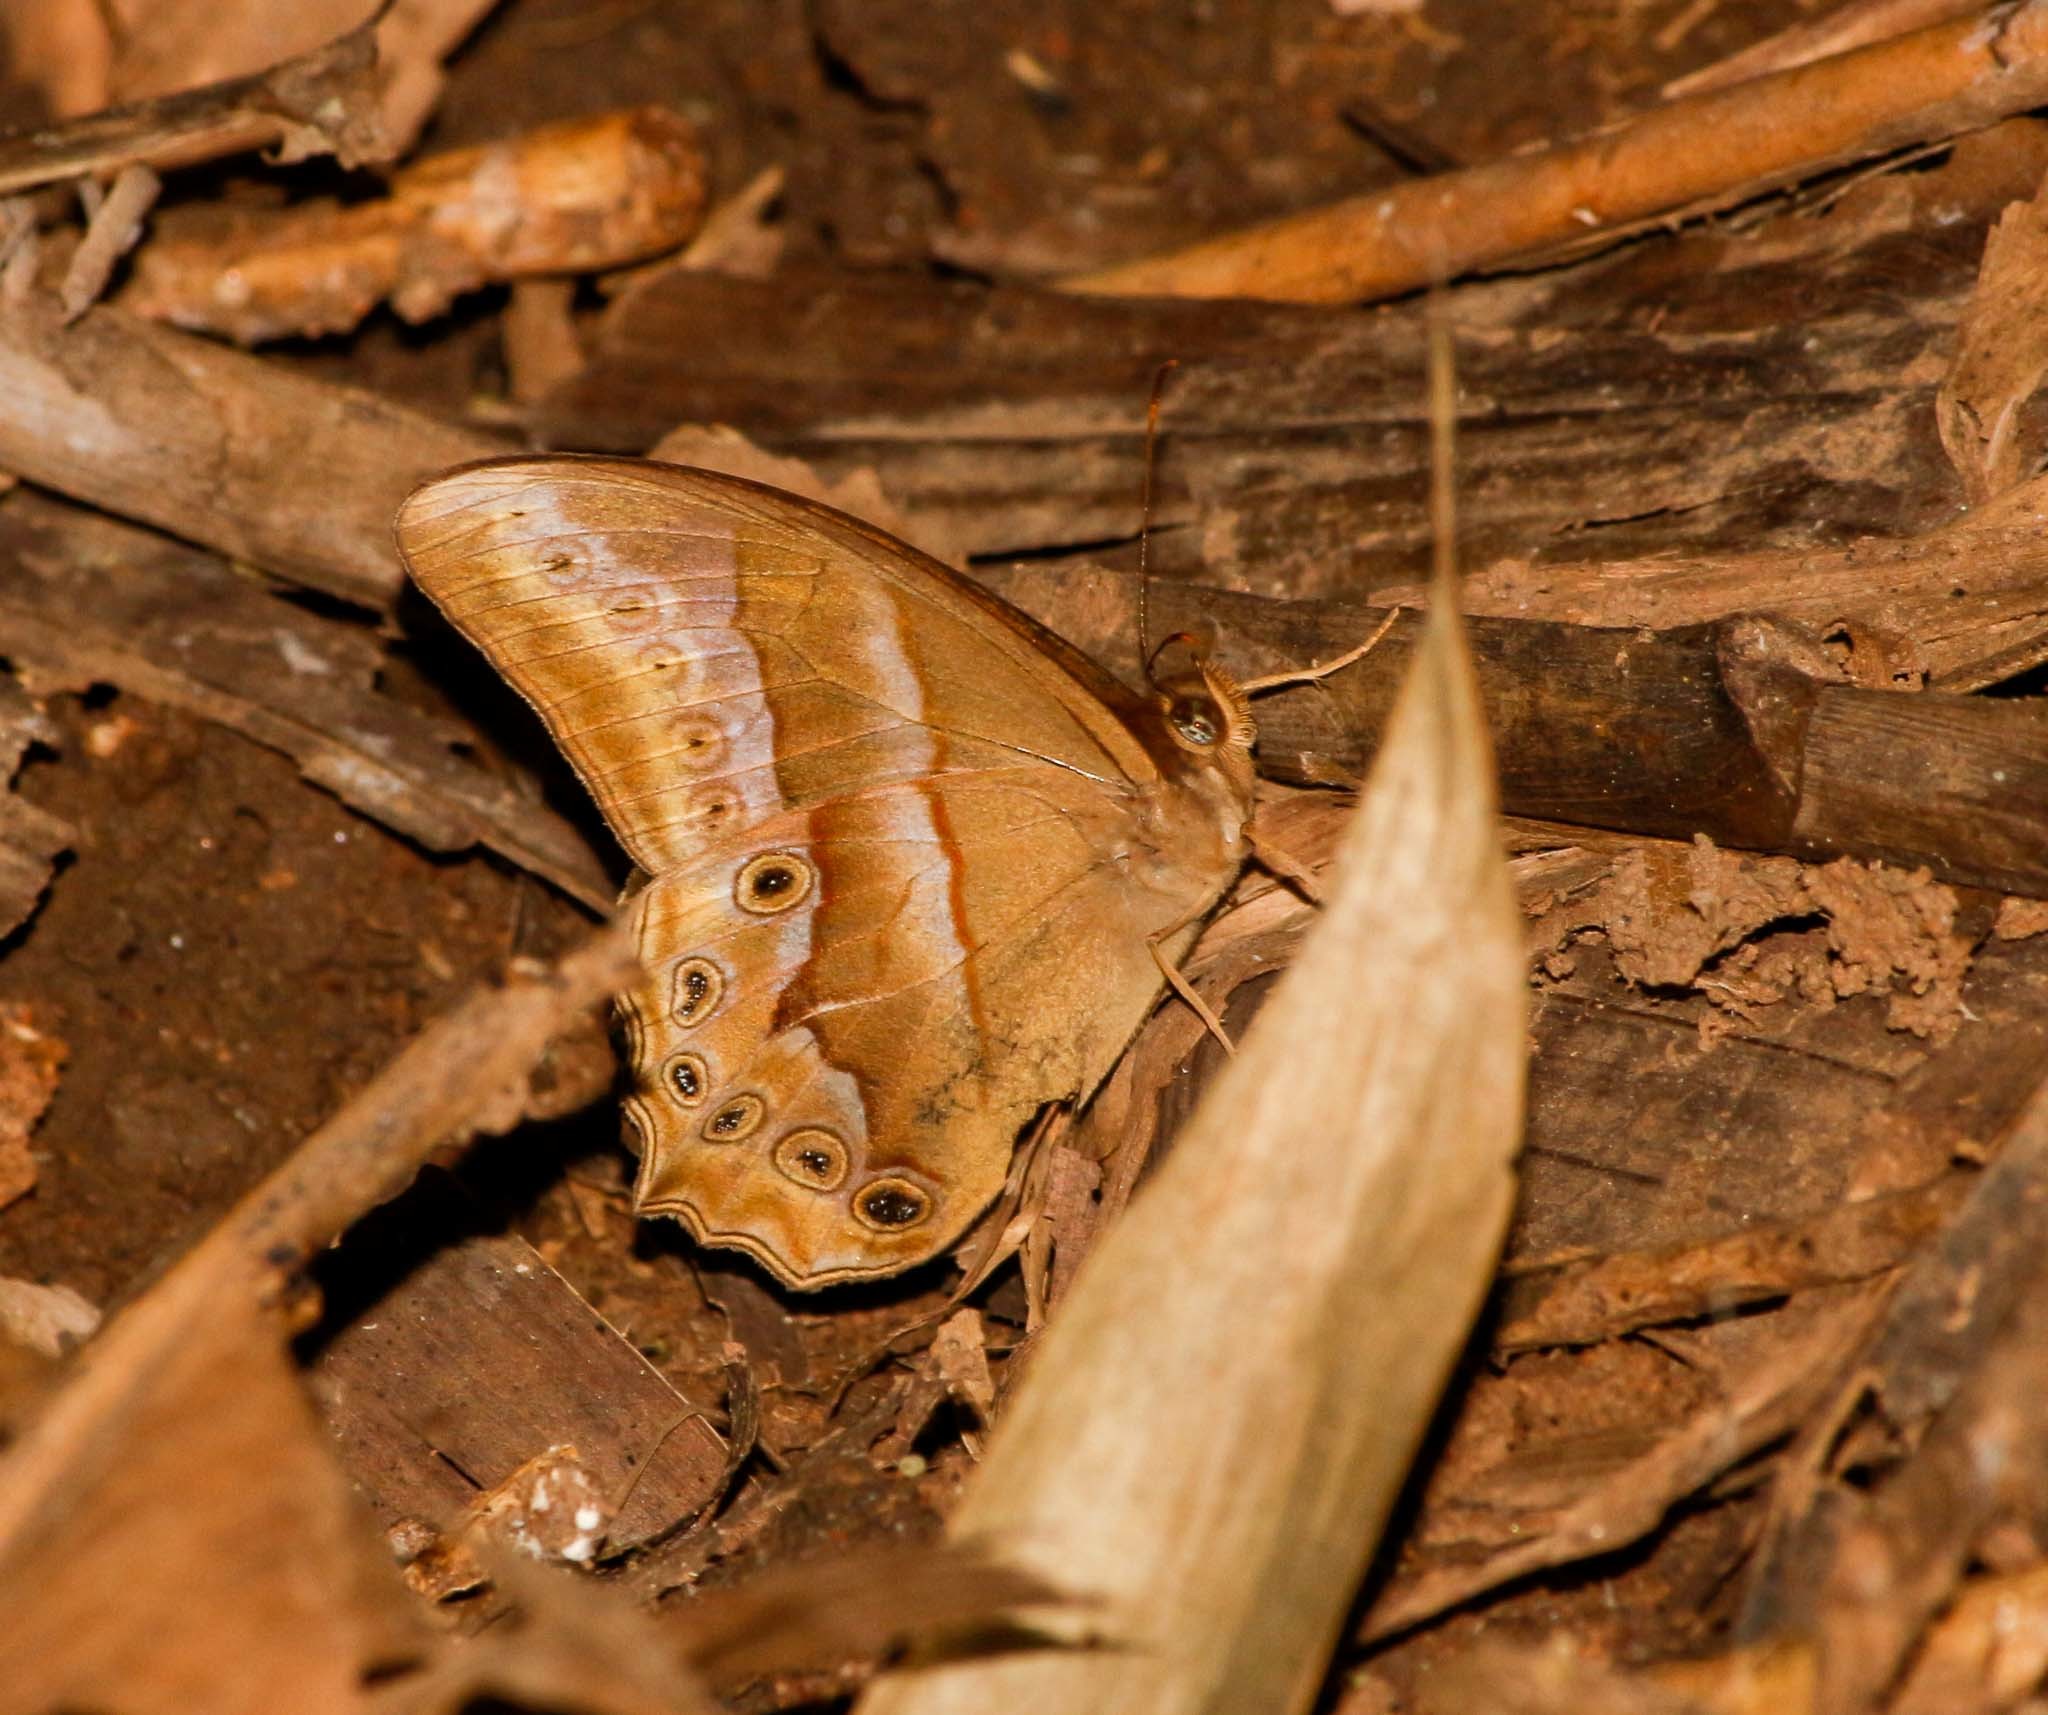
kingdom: Animalia
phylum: Arthropoda
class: Insecta
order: Lepidoptera
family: Nymphalidae
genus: Lethe
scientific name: Lethe chandica
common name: Angled red forester
